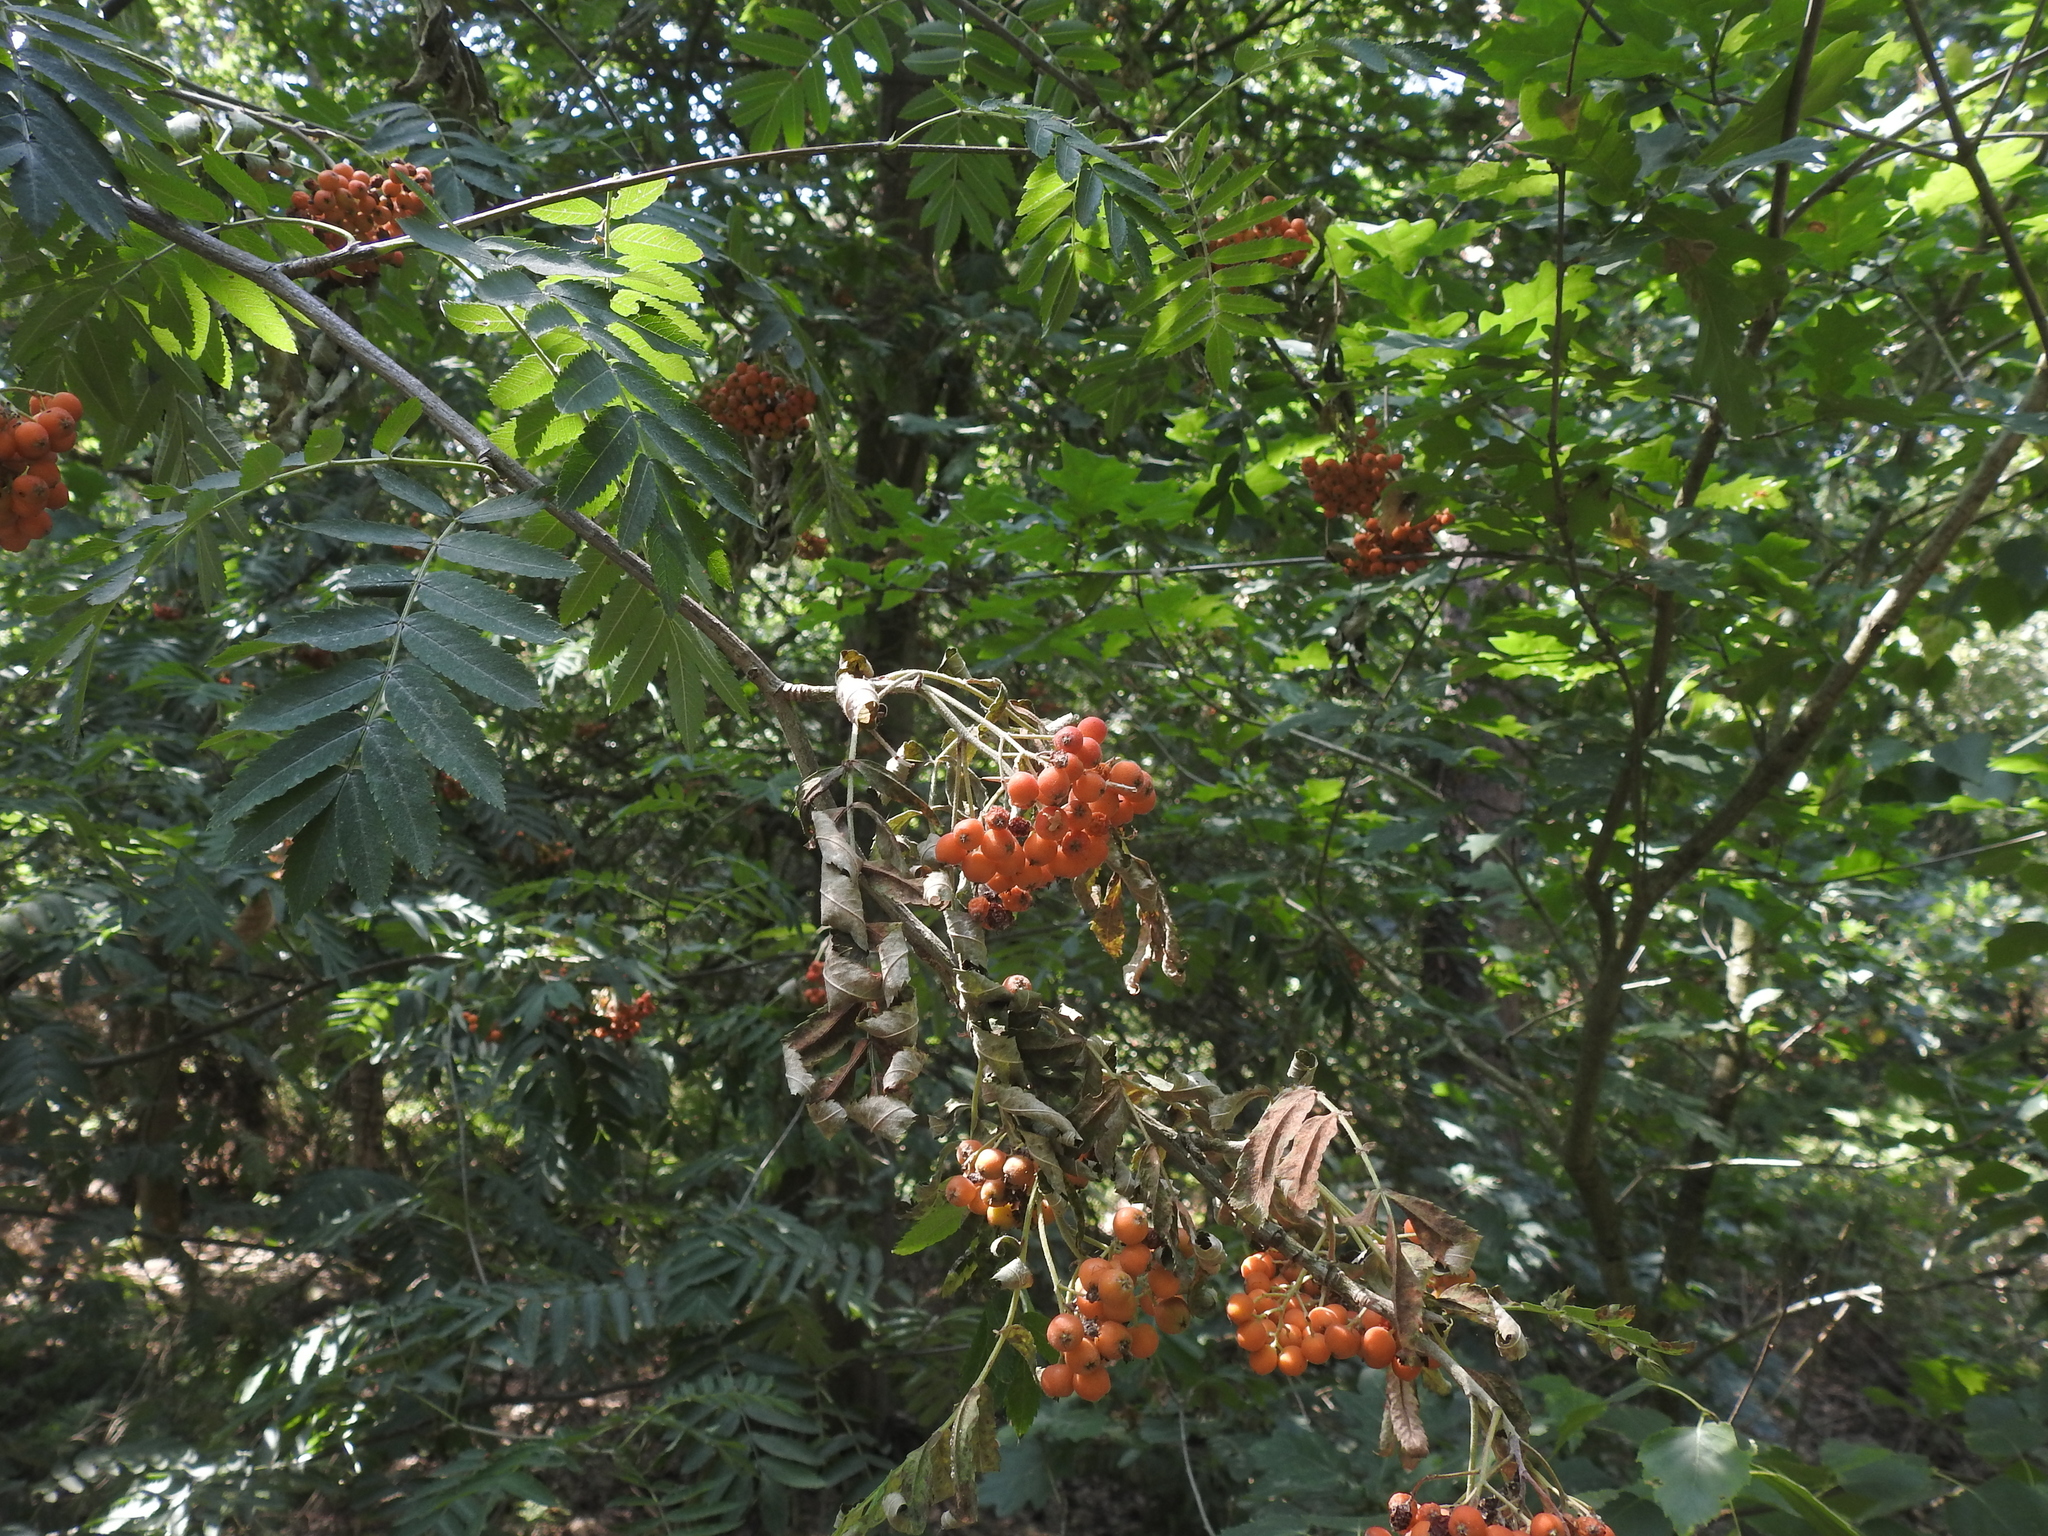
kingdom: Plantae
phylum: Tracheophyta
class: Magnoliopsida
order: Rosales
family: Rosaceae
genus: Sorbus
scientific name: Sorbus aucuparia
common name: Rowan
